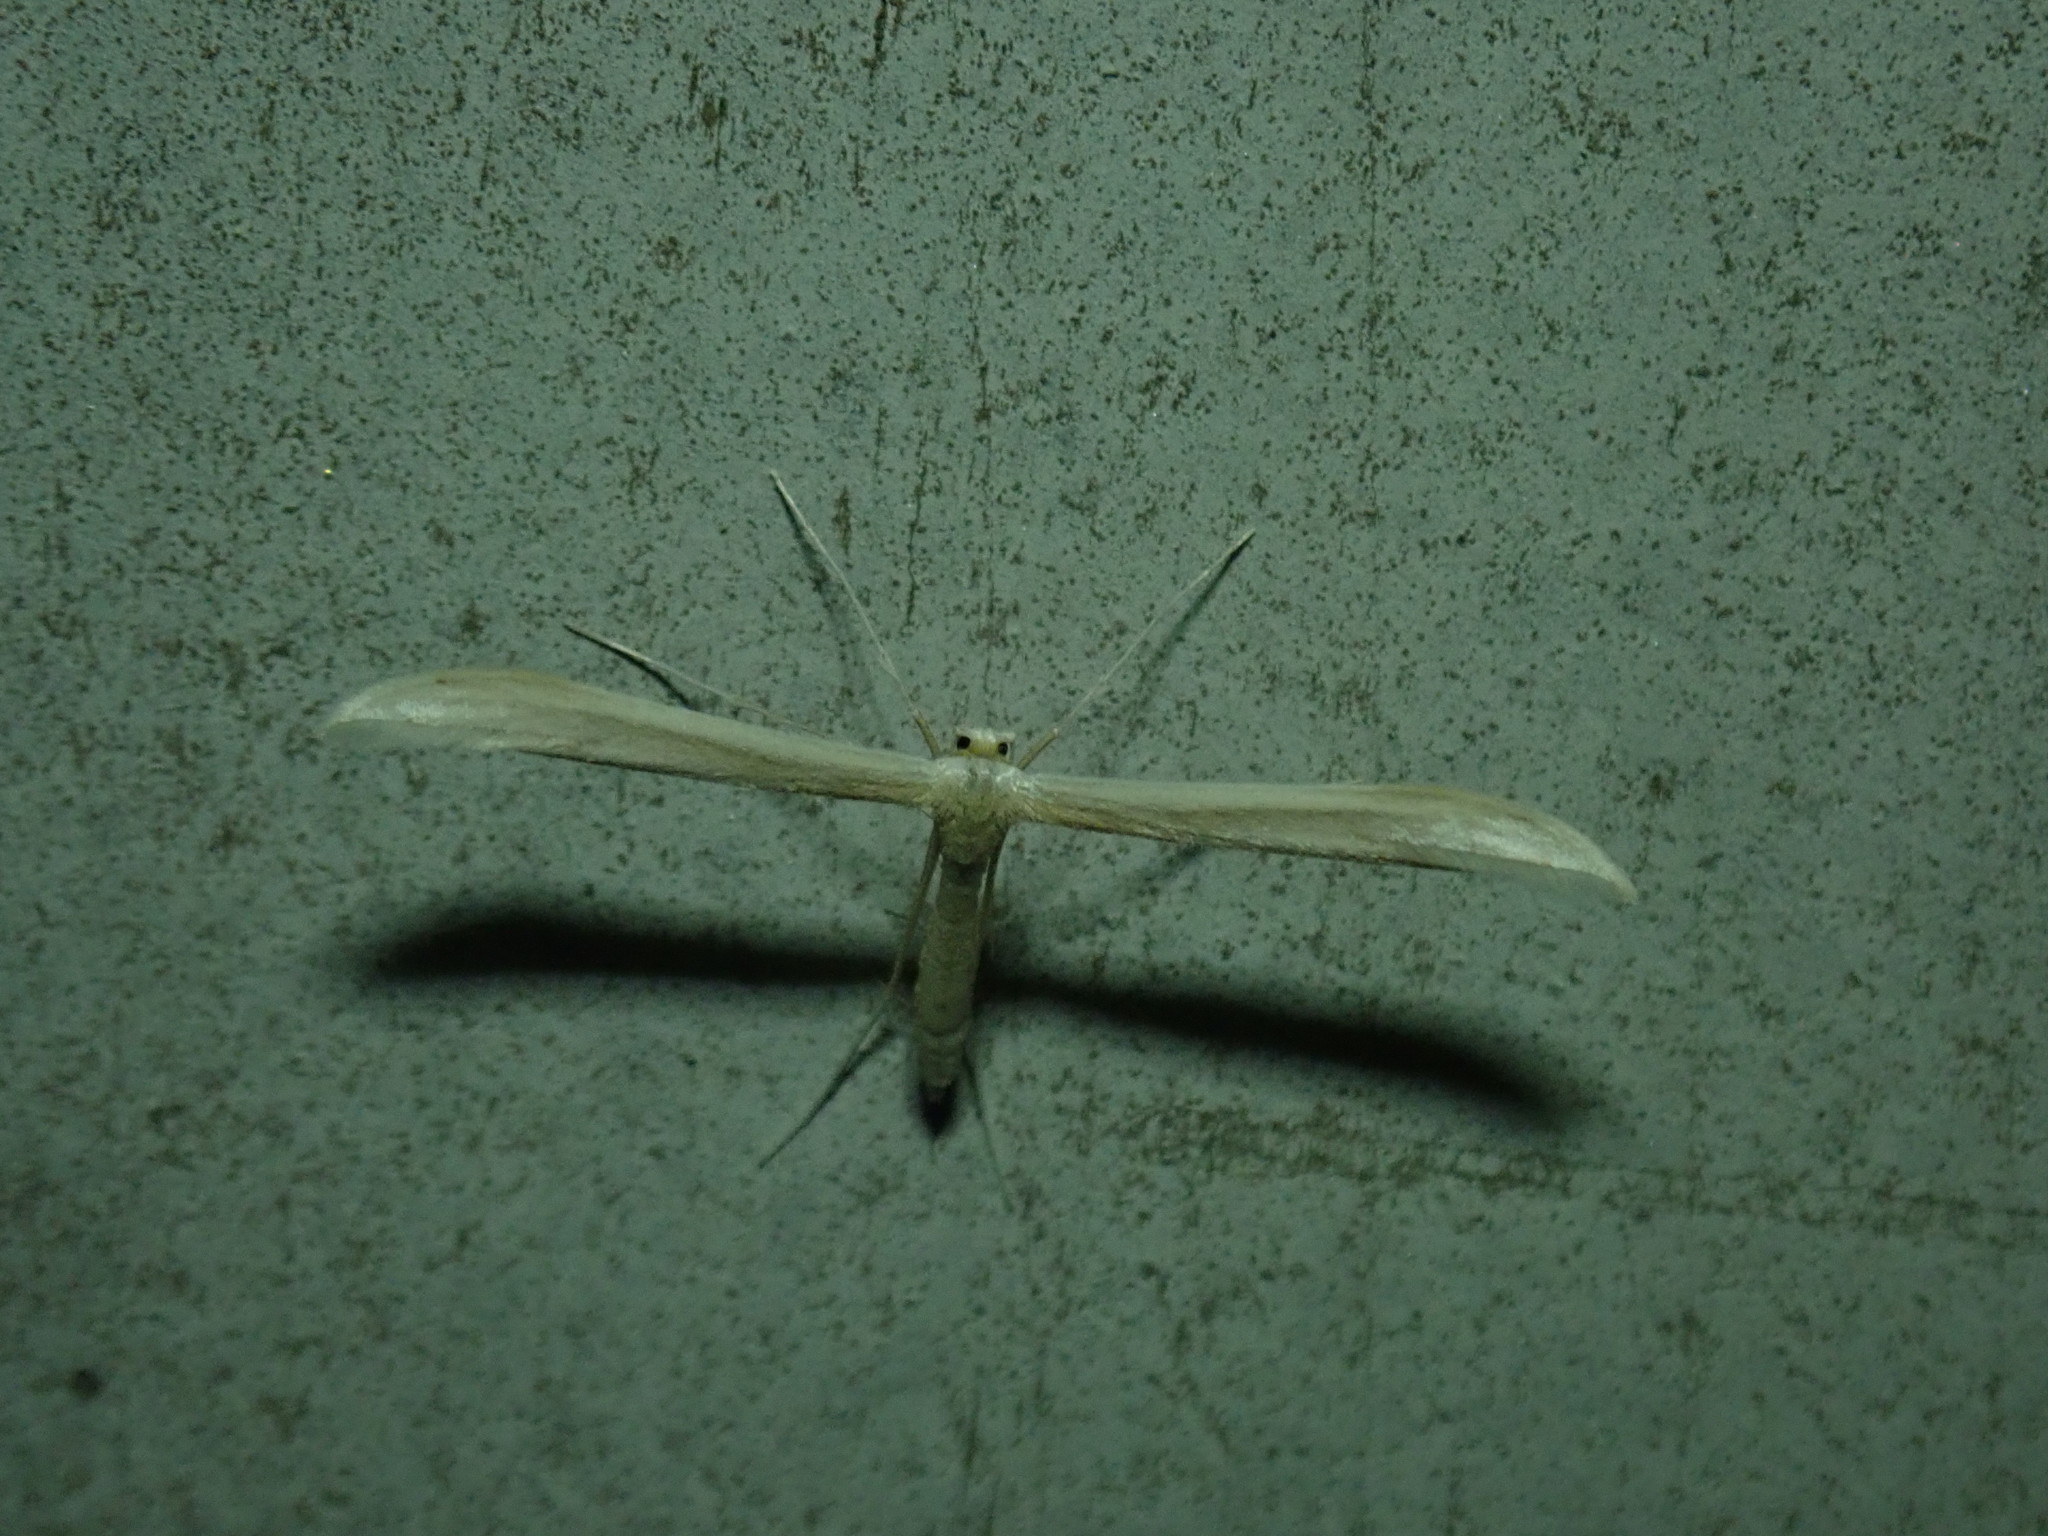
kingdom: Animalia
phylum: Arthropoda
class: Insecta
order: Lepidoptera
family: Pterophoridae
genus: Hellinsia
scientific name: Hellinsia
